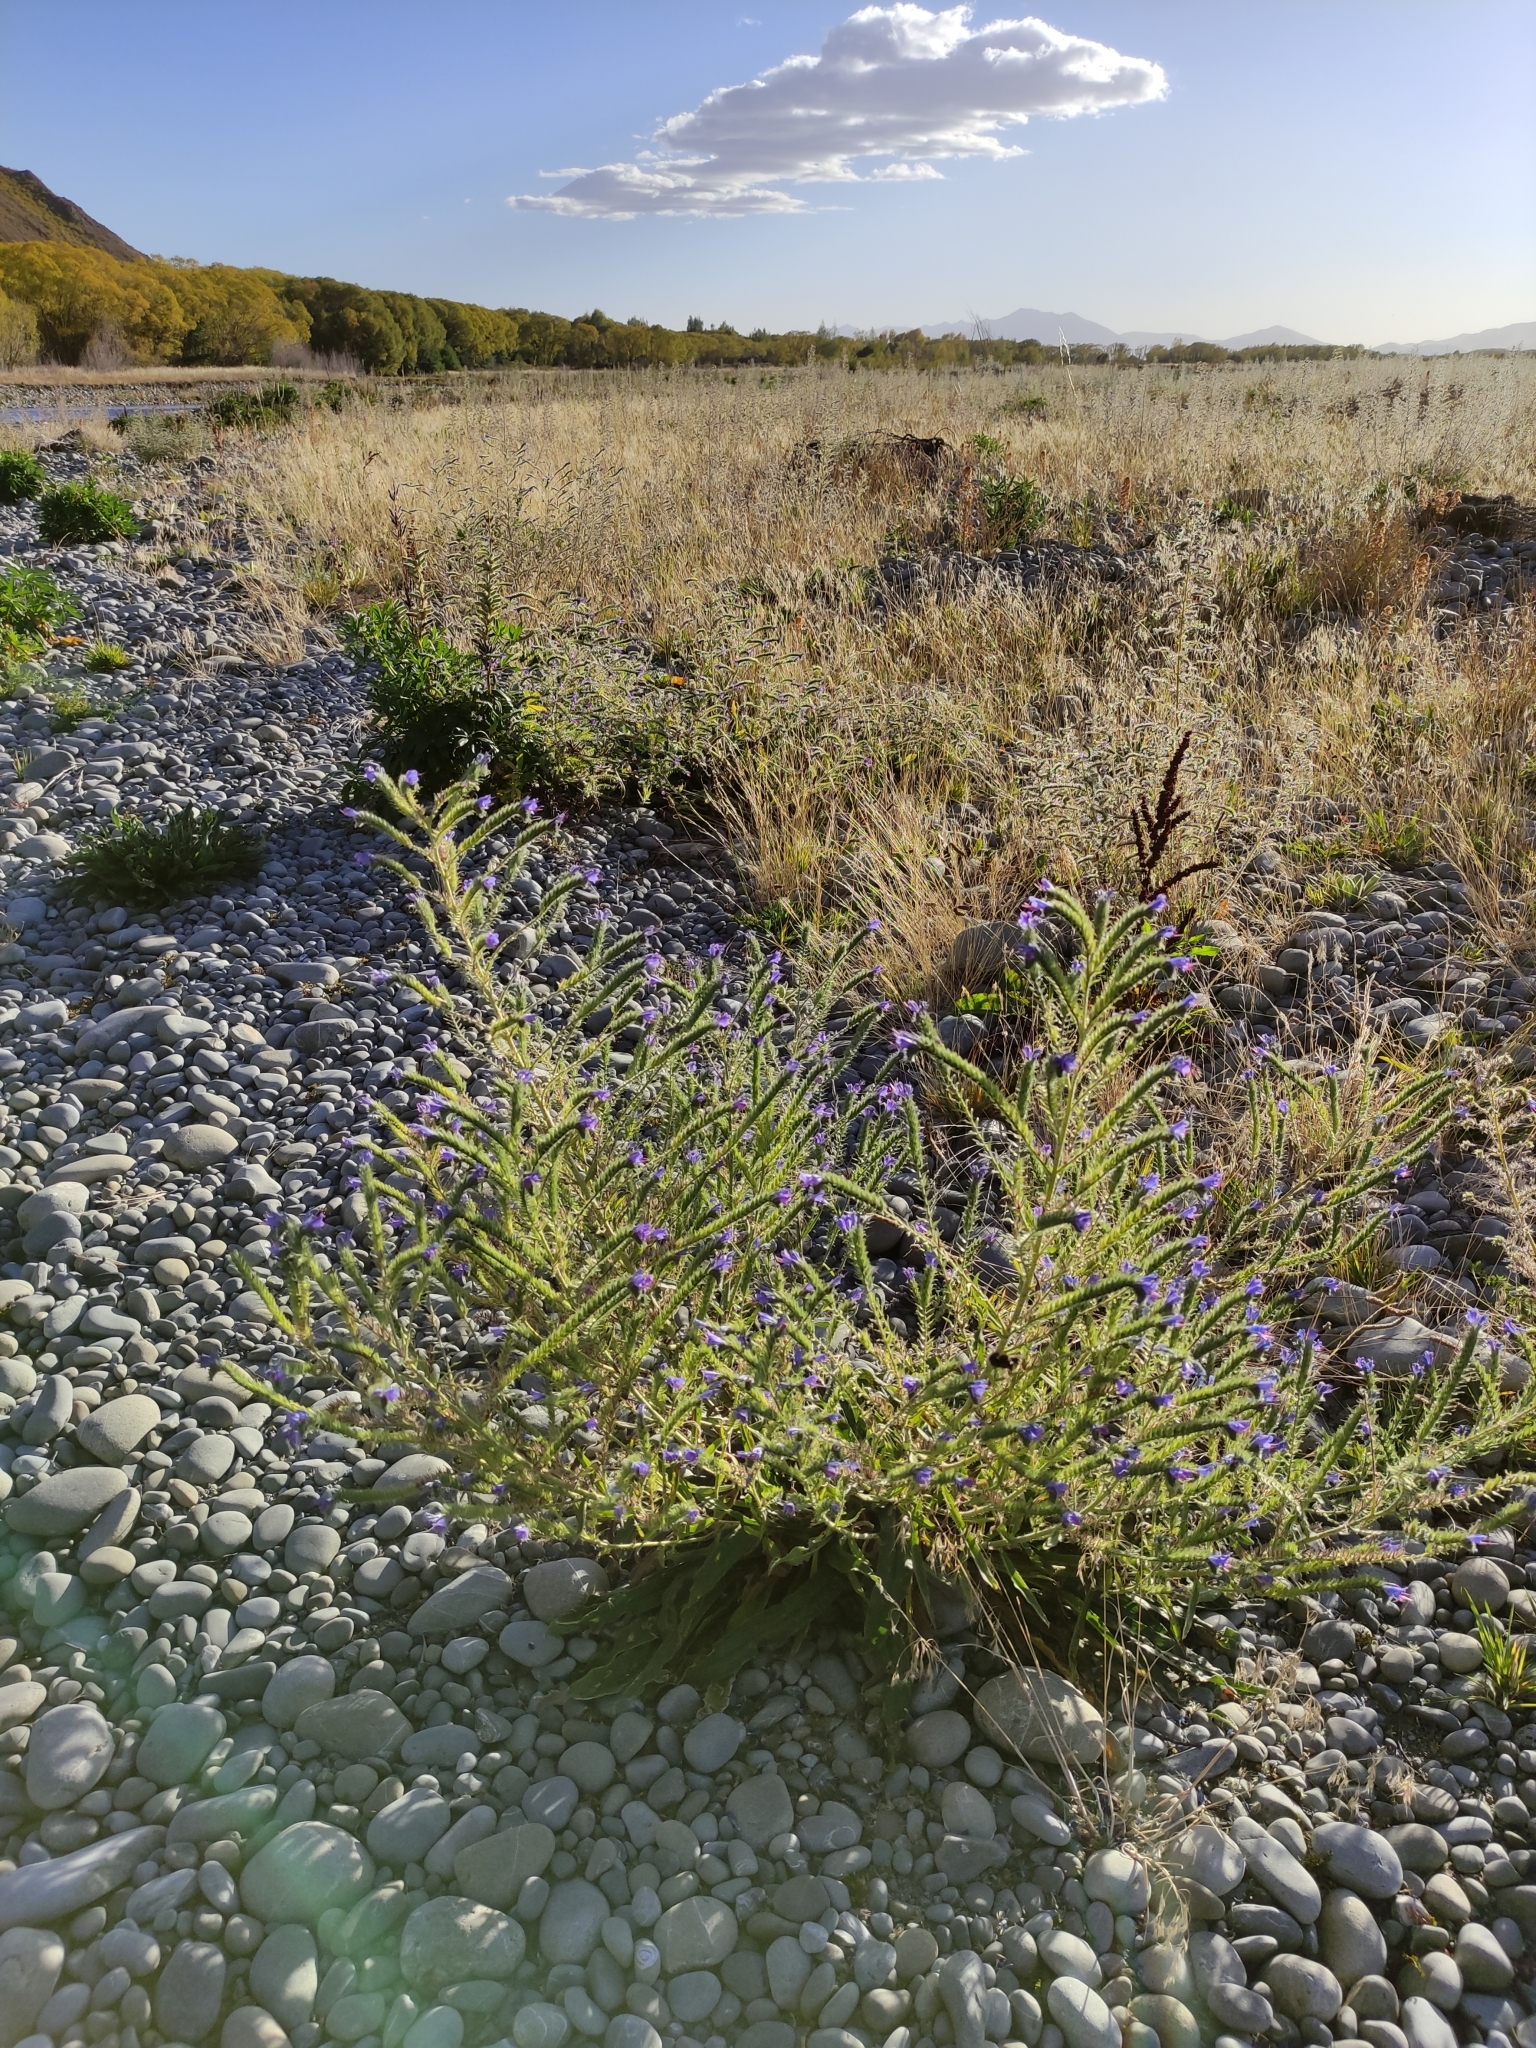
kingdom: Plantae
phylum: Tracheophyta
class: Magnoliopsida
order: Boraginales
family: Boraginaceae
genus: Echium
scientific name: Echium vulgare
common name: Common viper's bugloss
